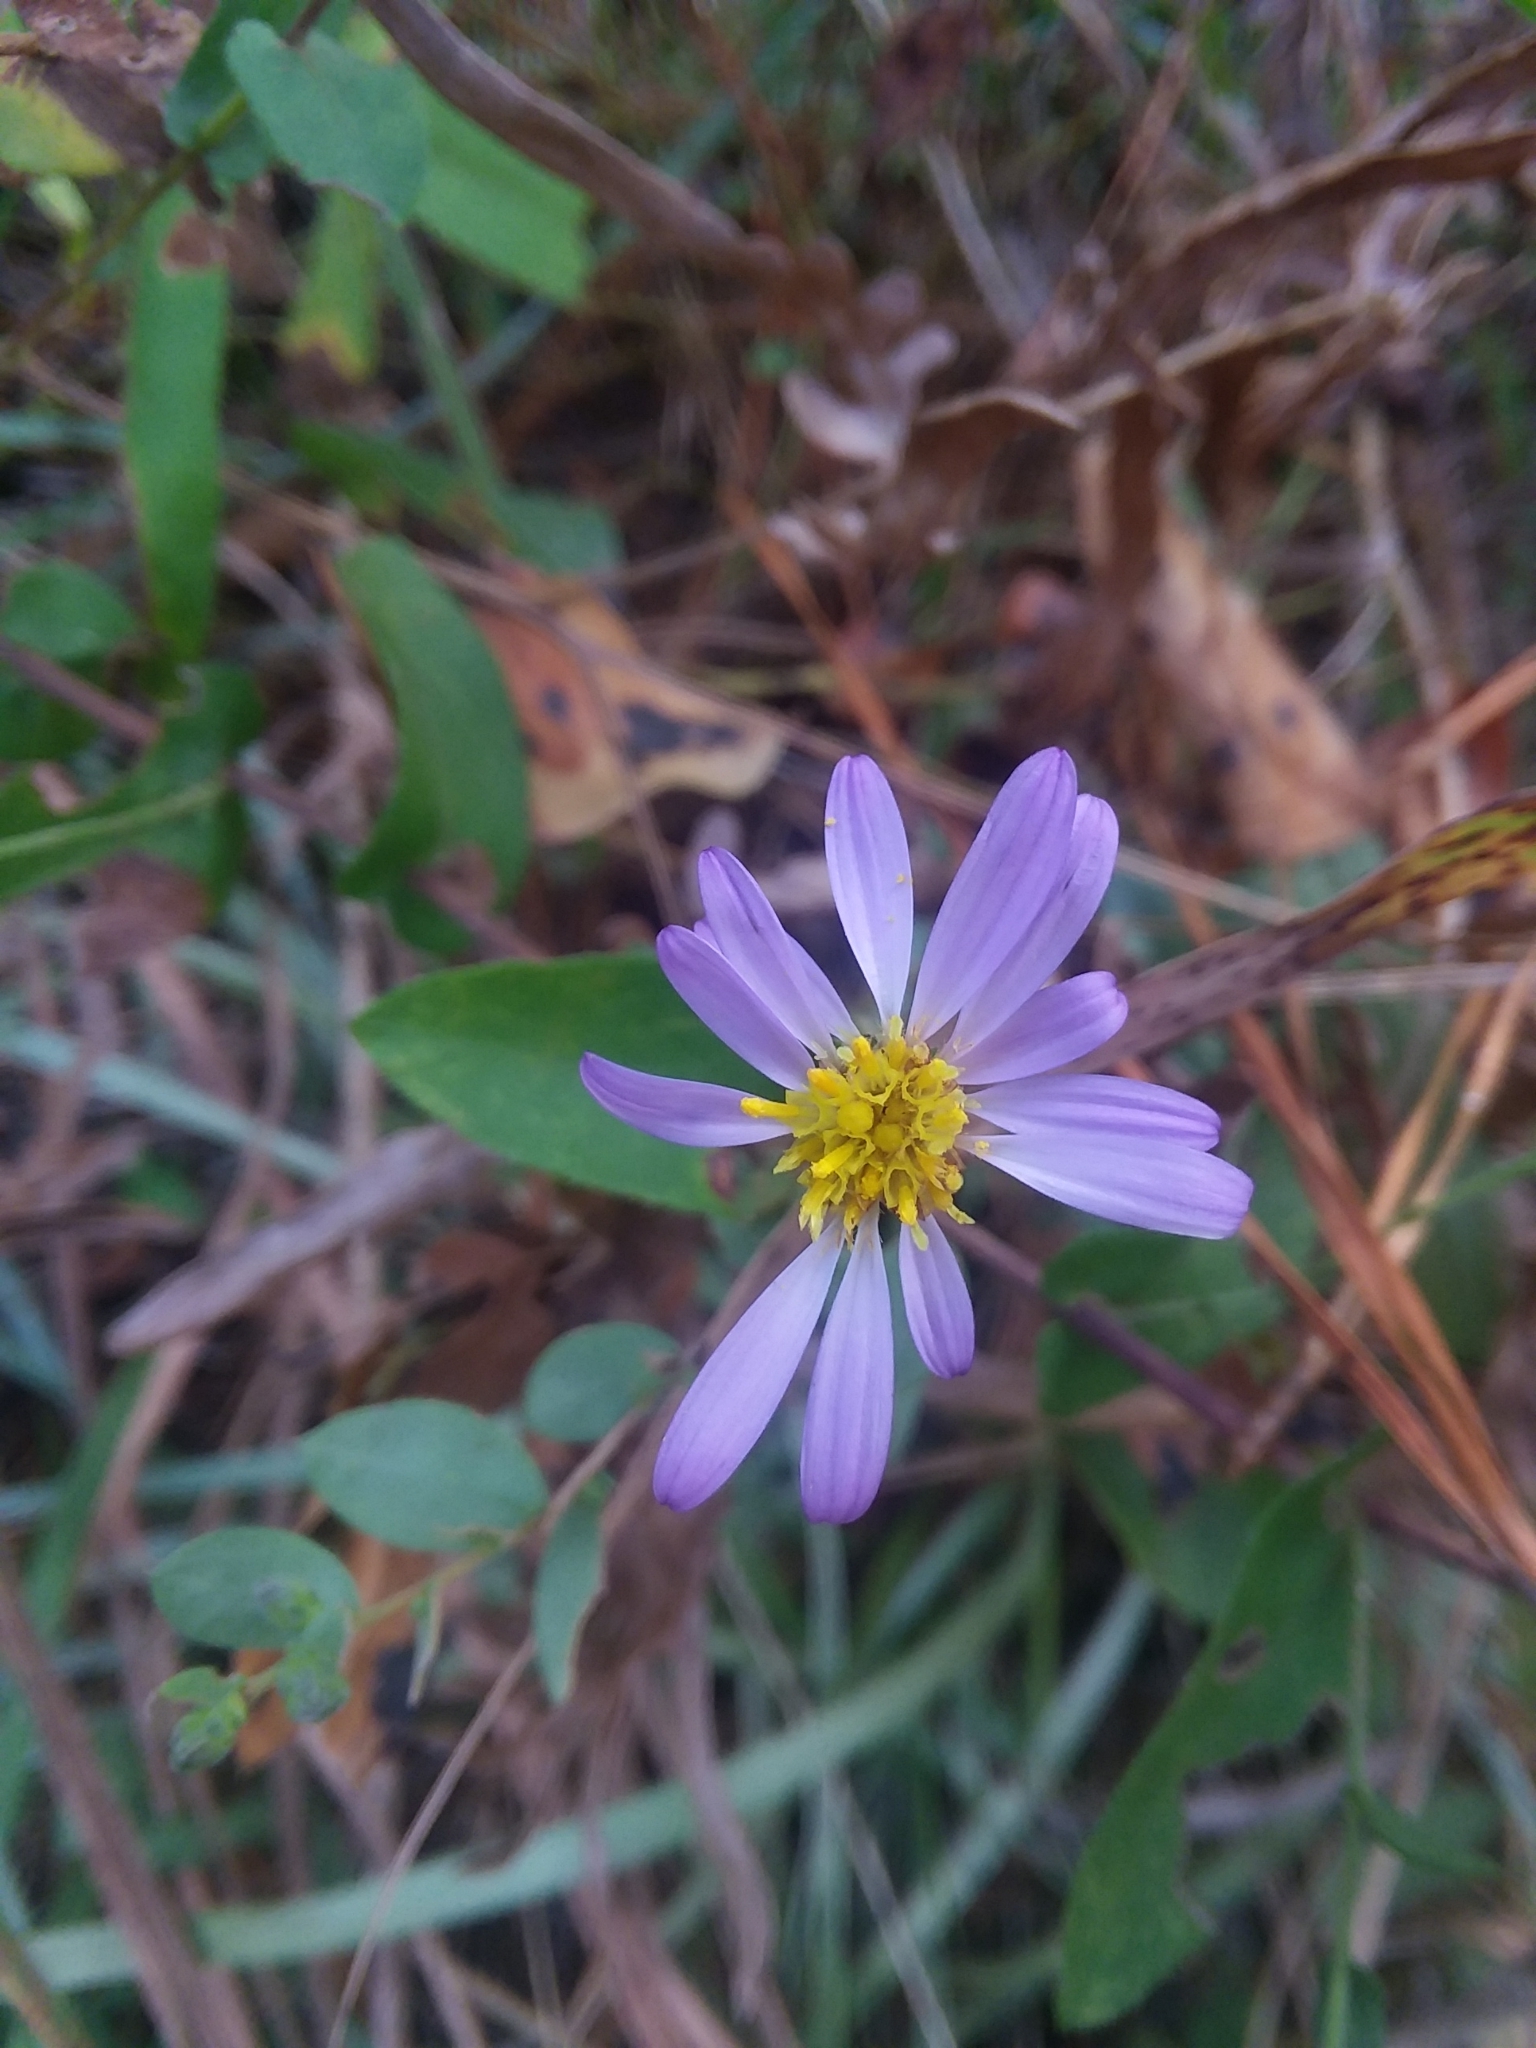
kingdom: Plantae
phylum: Tracheophyta
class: Magnoliopsida
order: Asterales
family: Asteraceae
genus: Symphyotrichum
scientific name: Symphyotrichum patens
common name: Late purple aster
